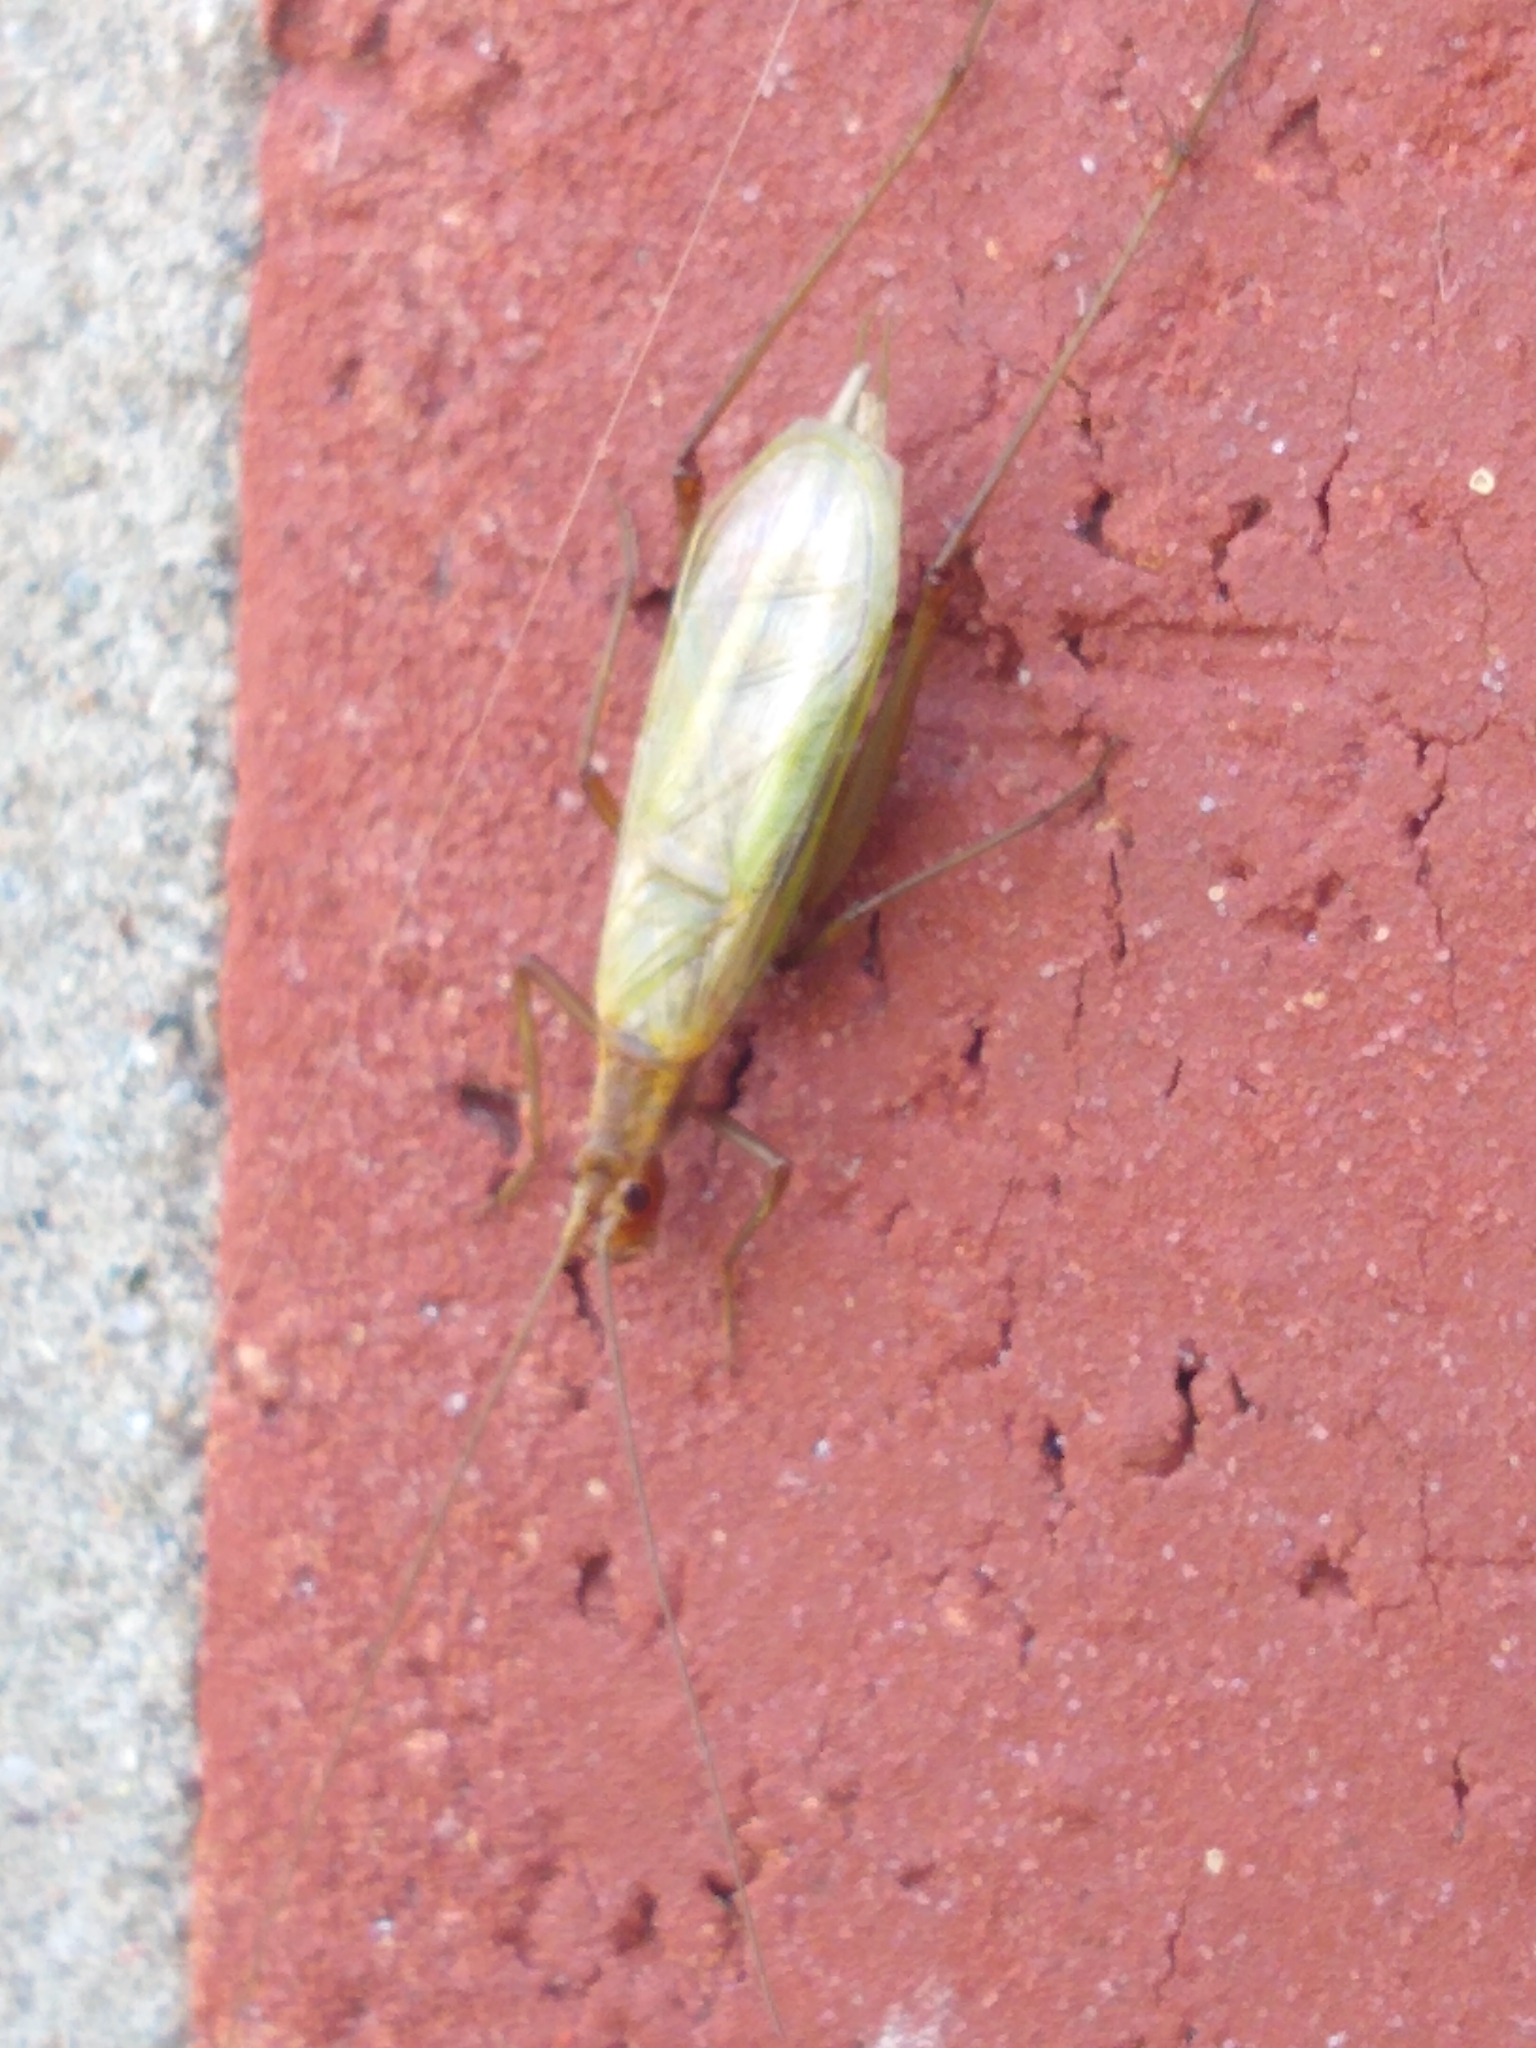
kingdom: Animalia
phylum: Arthropoda
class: Insecta
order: Orthoptera
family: Gryllidae
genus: Oecanthus
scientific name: Oecanthus pini
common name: Pine tree cricket
